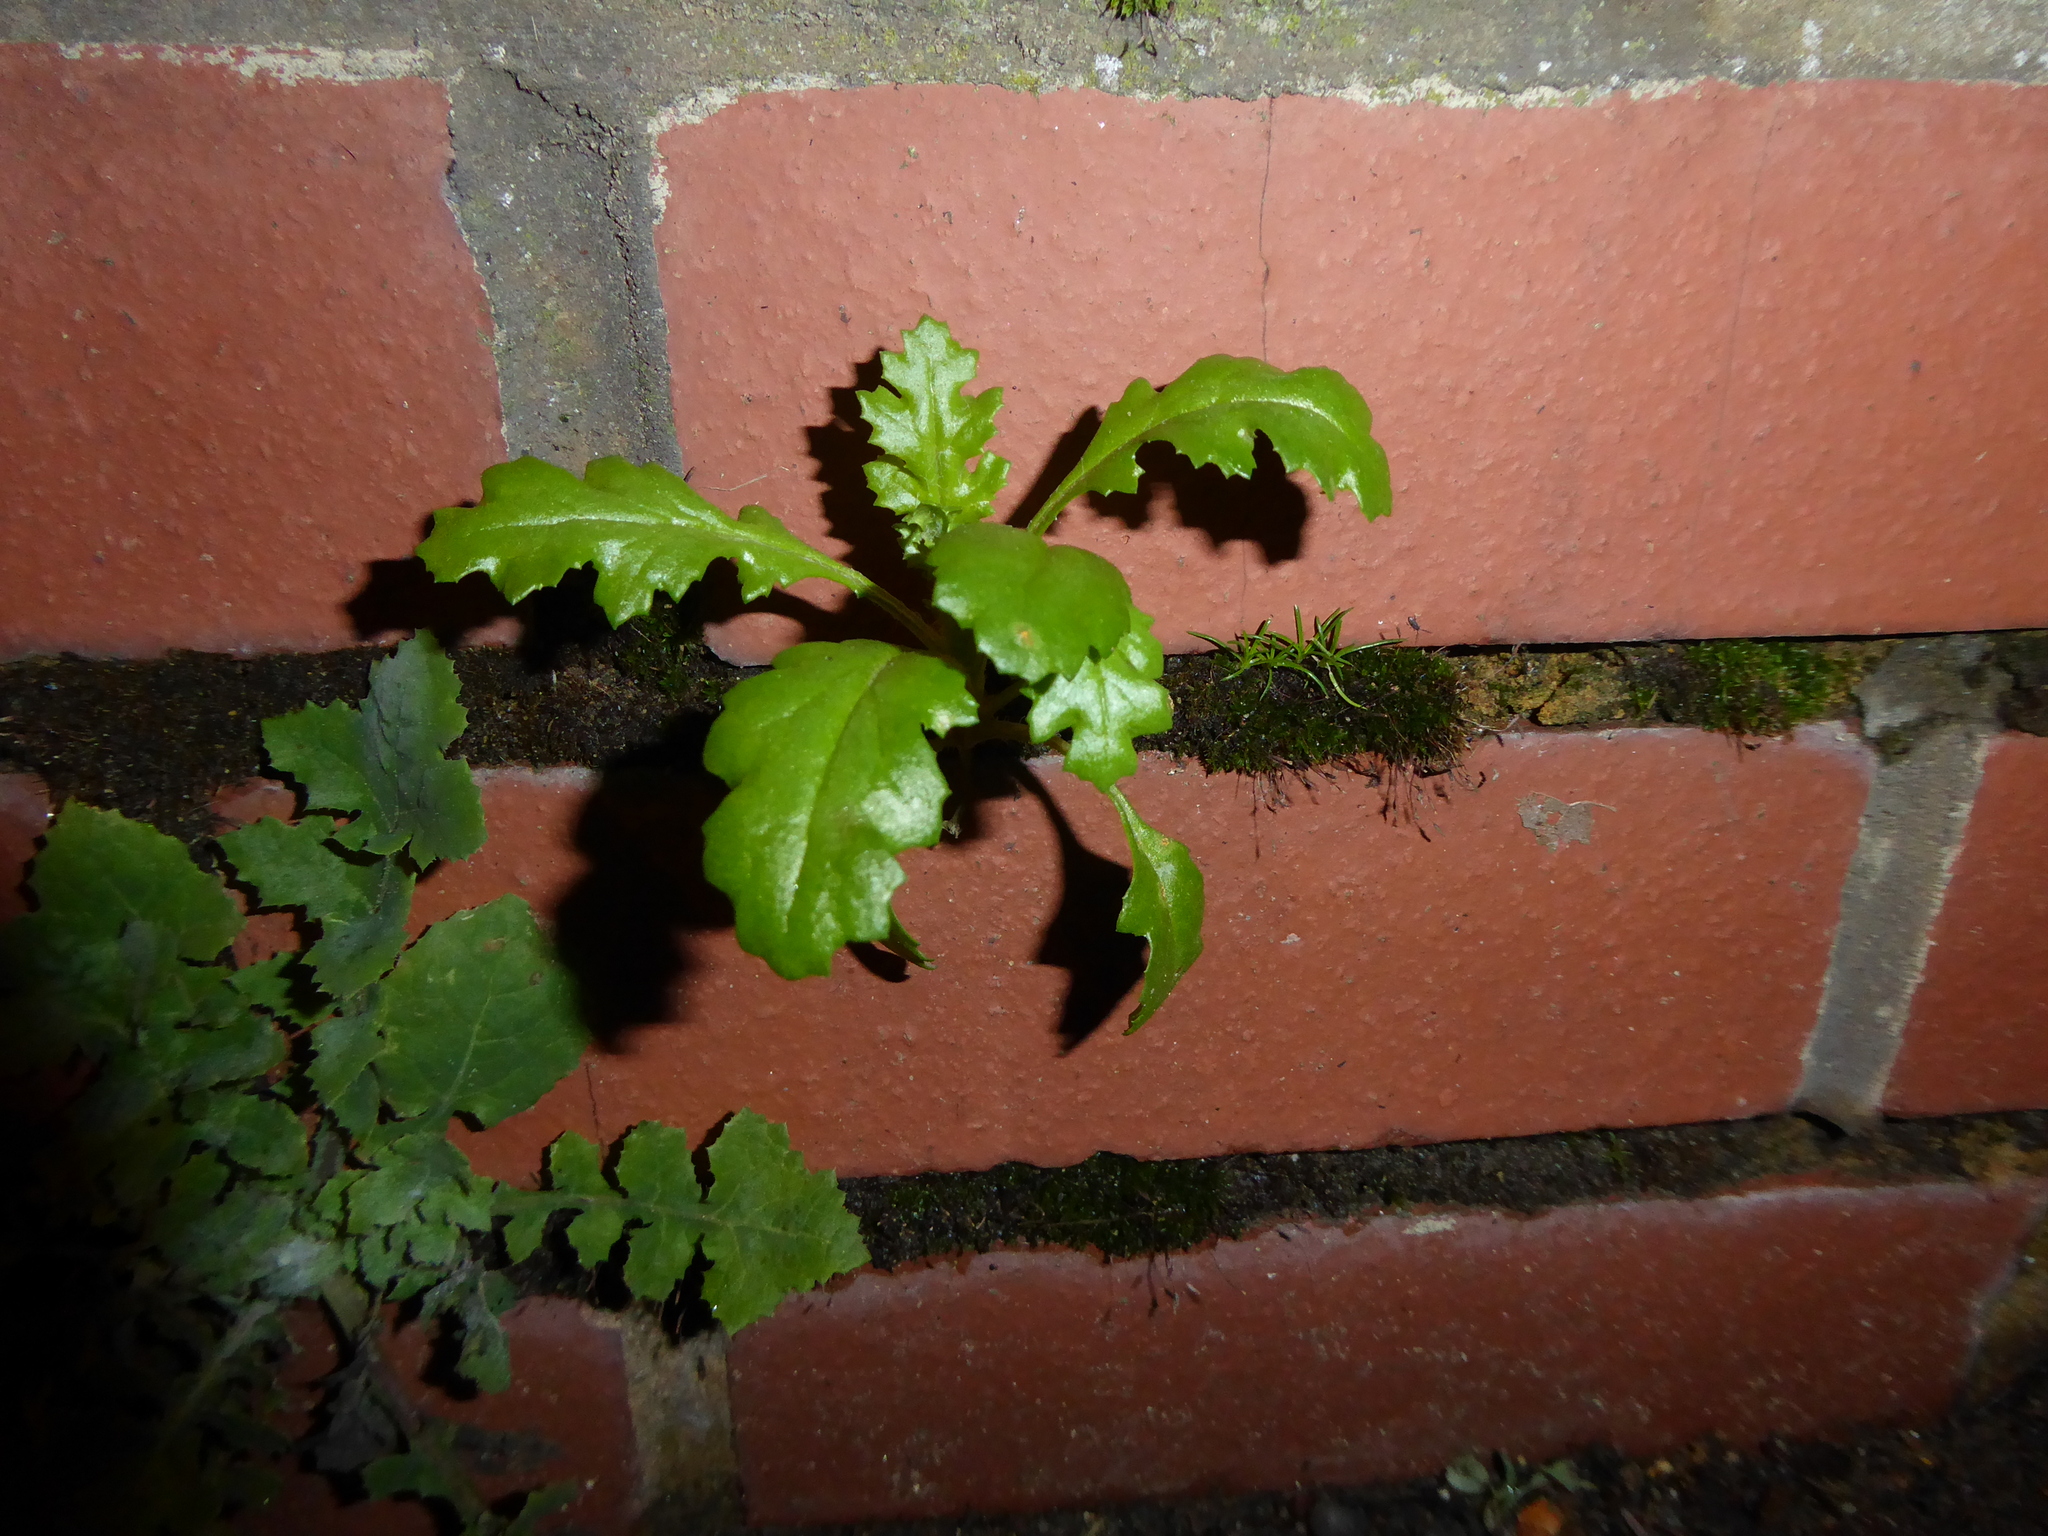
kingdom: Plantae
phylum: Tracheophyta
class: Magnoliopsida
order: Asterales
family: Asteraceae
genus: Senecio
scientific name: Senecio vulgaris
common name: Old-man-in-the-spring
